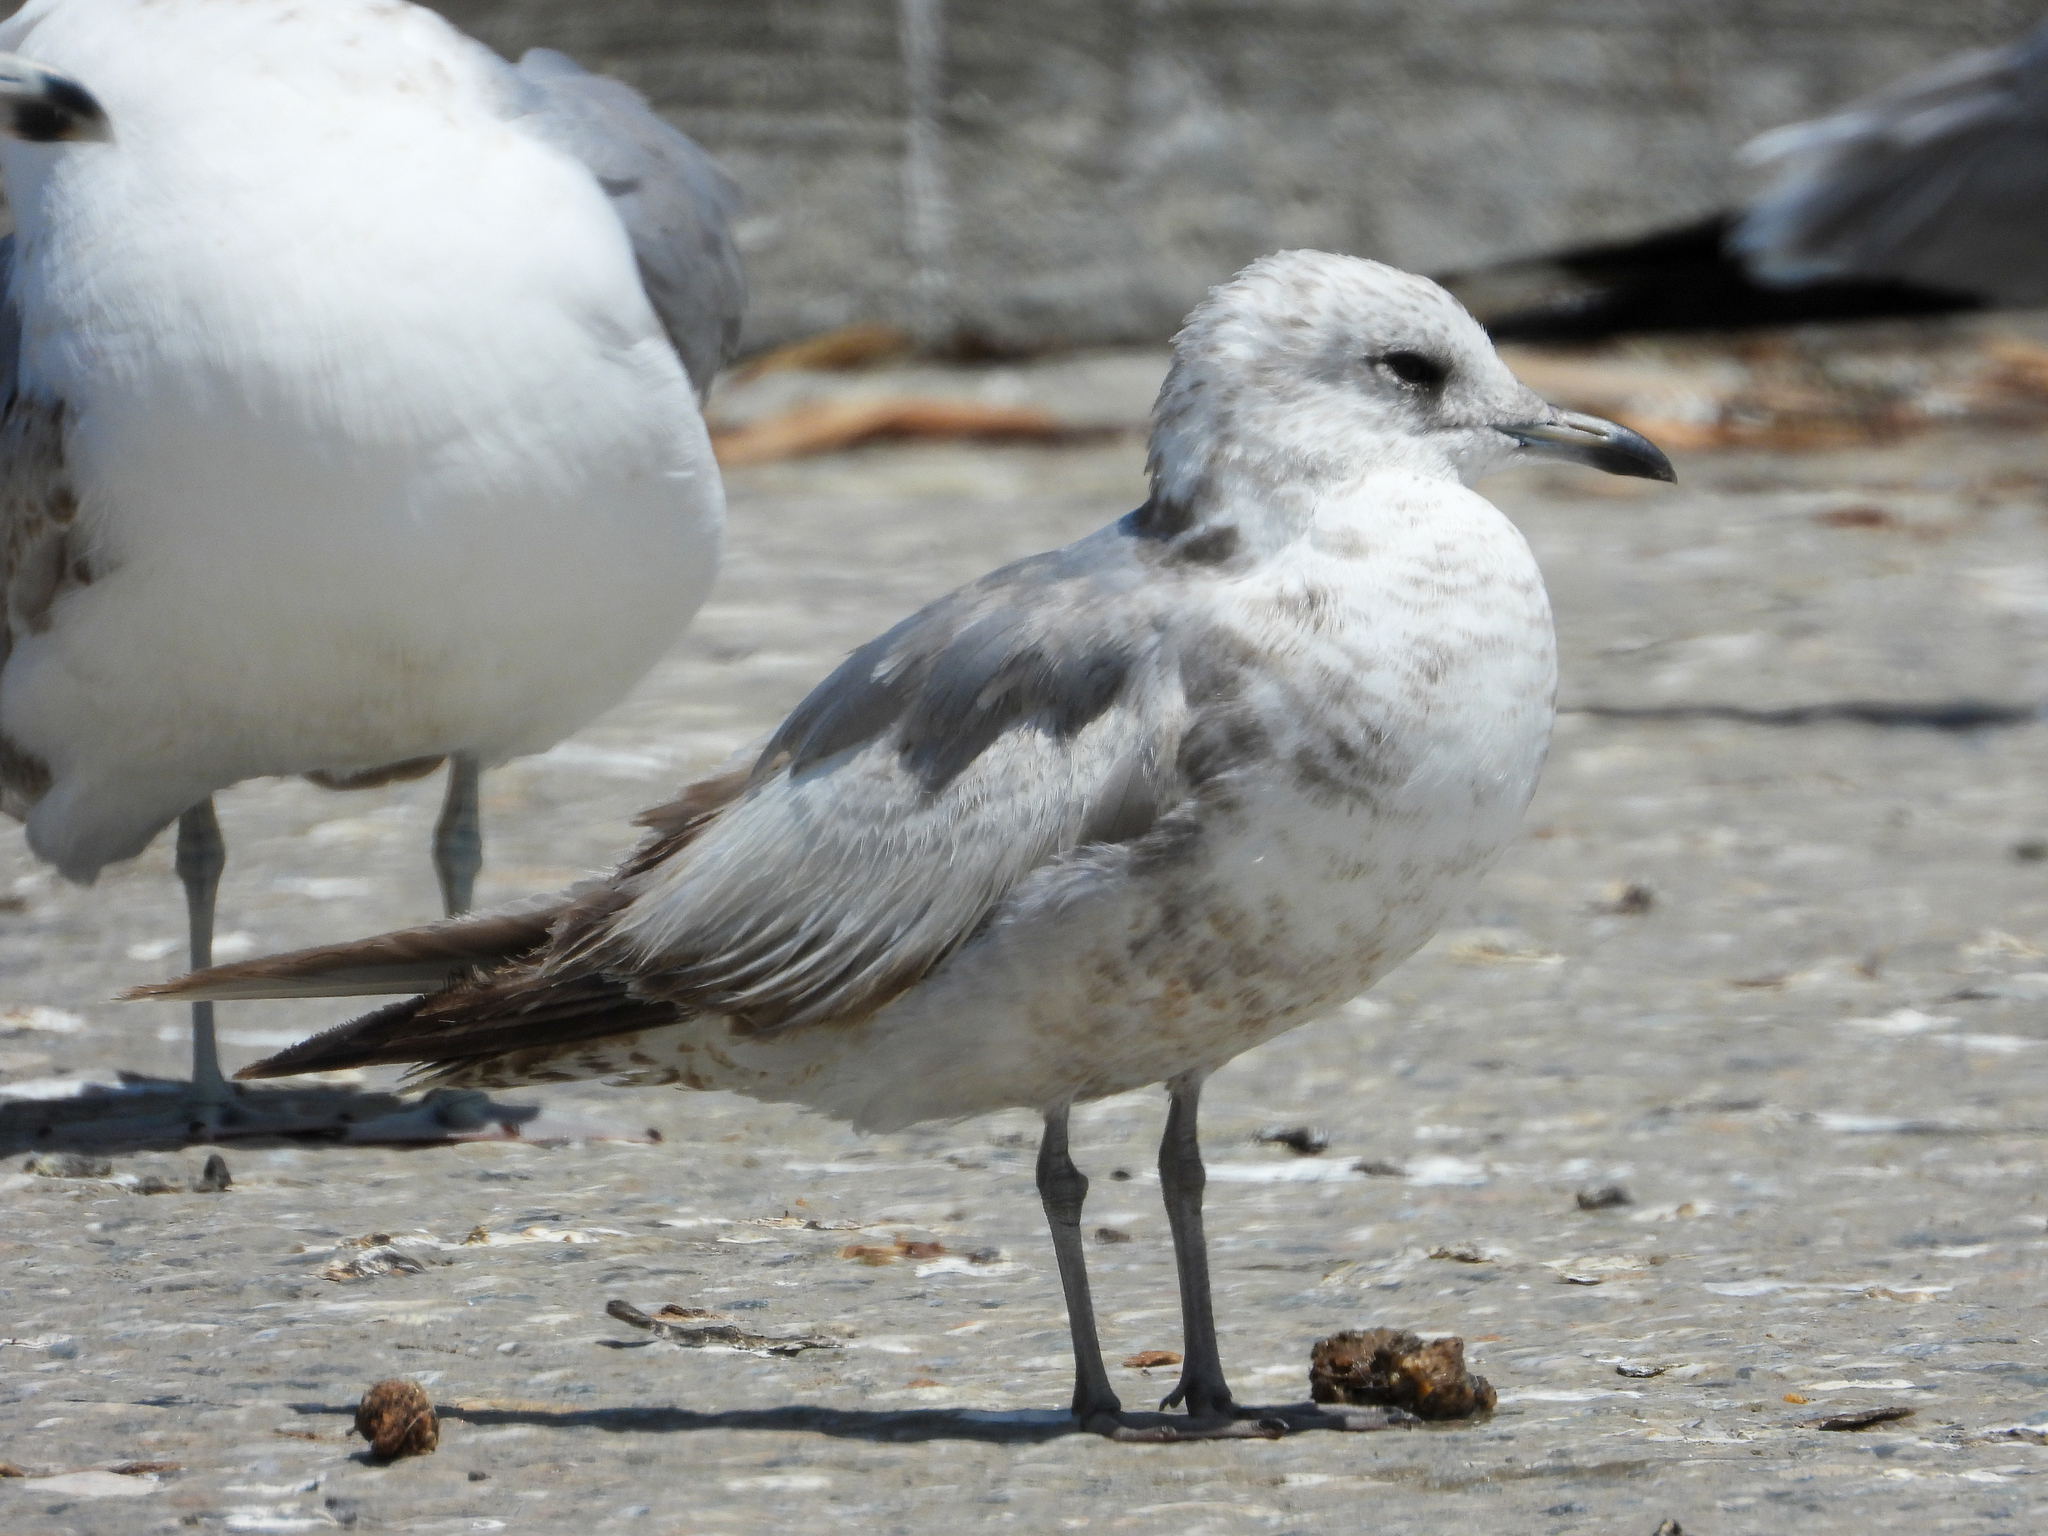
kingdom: Animalia
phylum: Chordata
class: Aves
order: Charadriiformes
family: Laridae
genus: Larus
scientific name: Larus brachyrhynchus
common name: Short-billed gull
